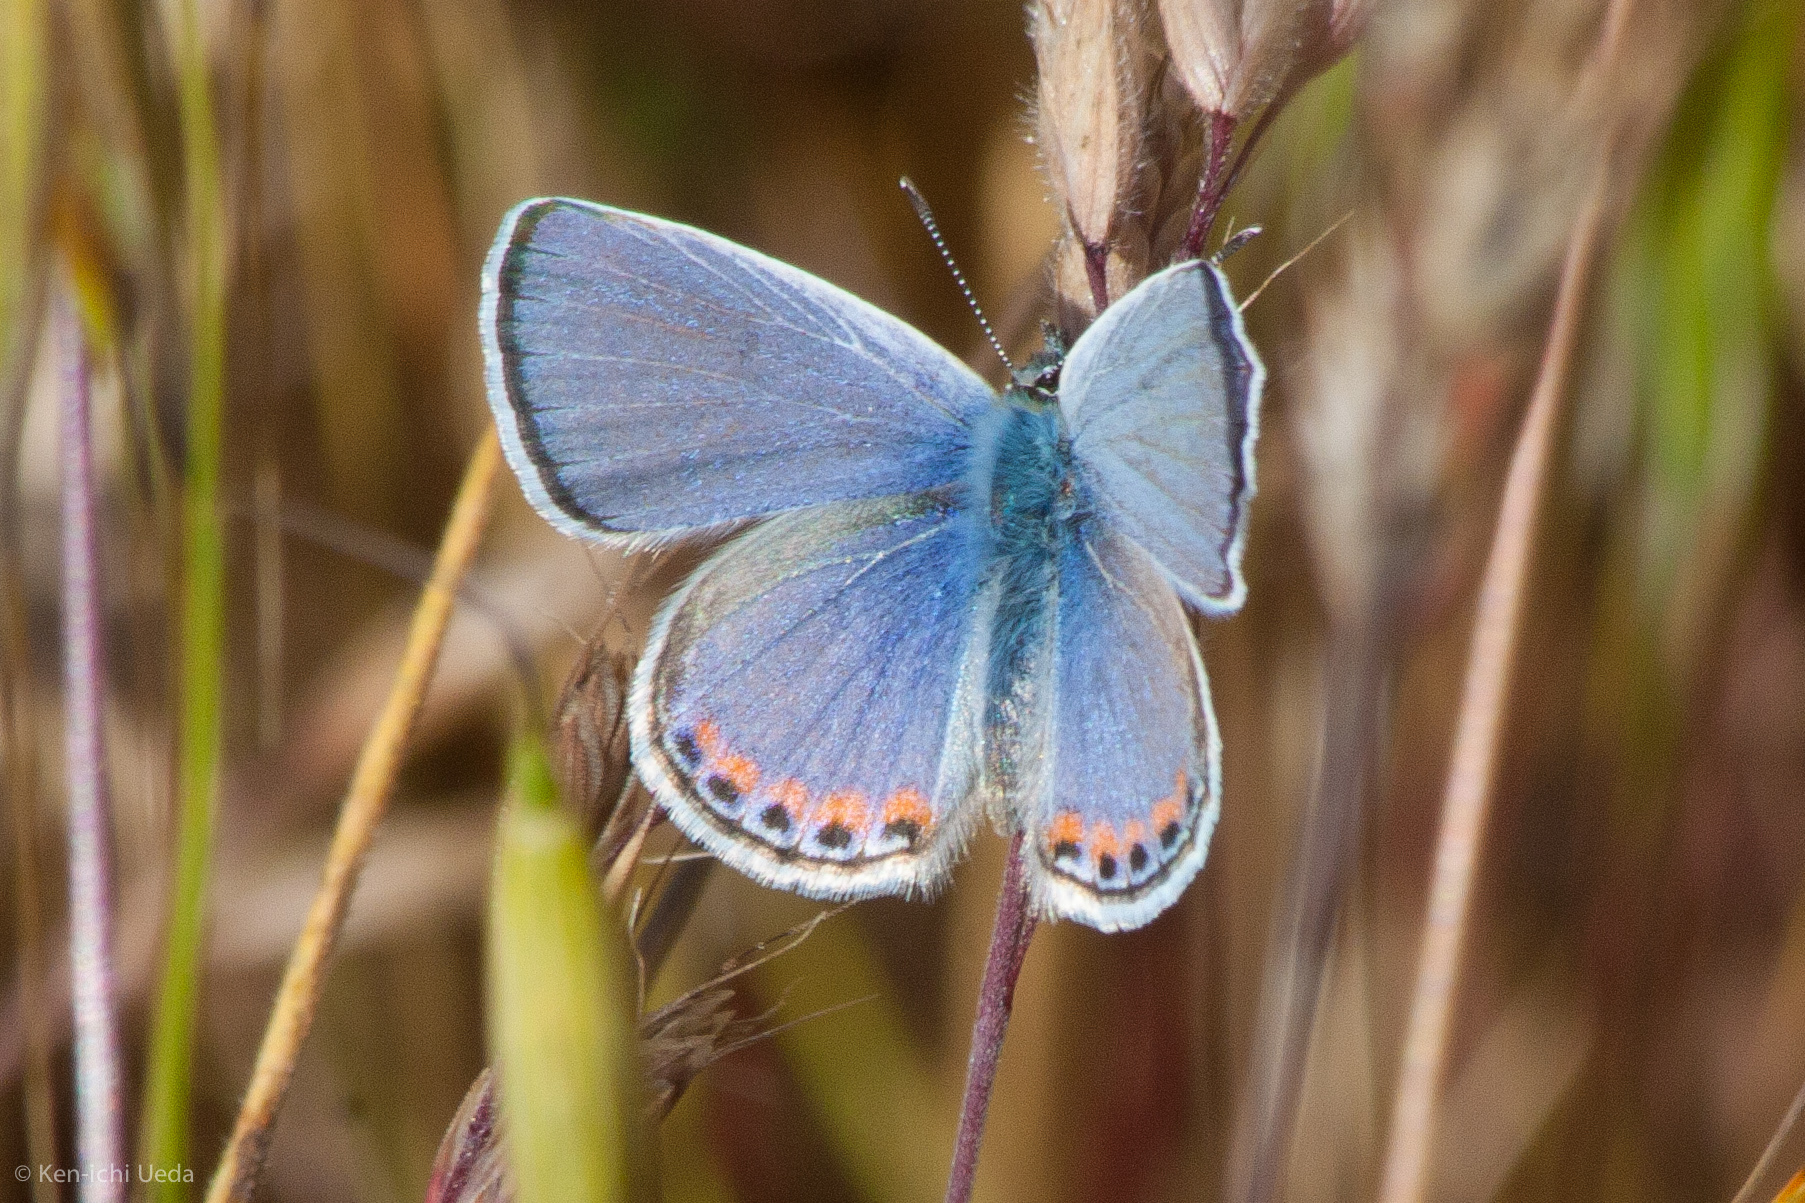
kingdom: Animalia
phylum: Arthropoda
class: Insecta
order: Lepidoptera
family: Lycaenidae
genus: Icaricia
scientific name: Icaricia acmon
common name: Acmon blue
